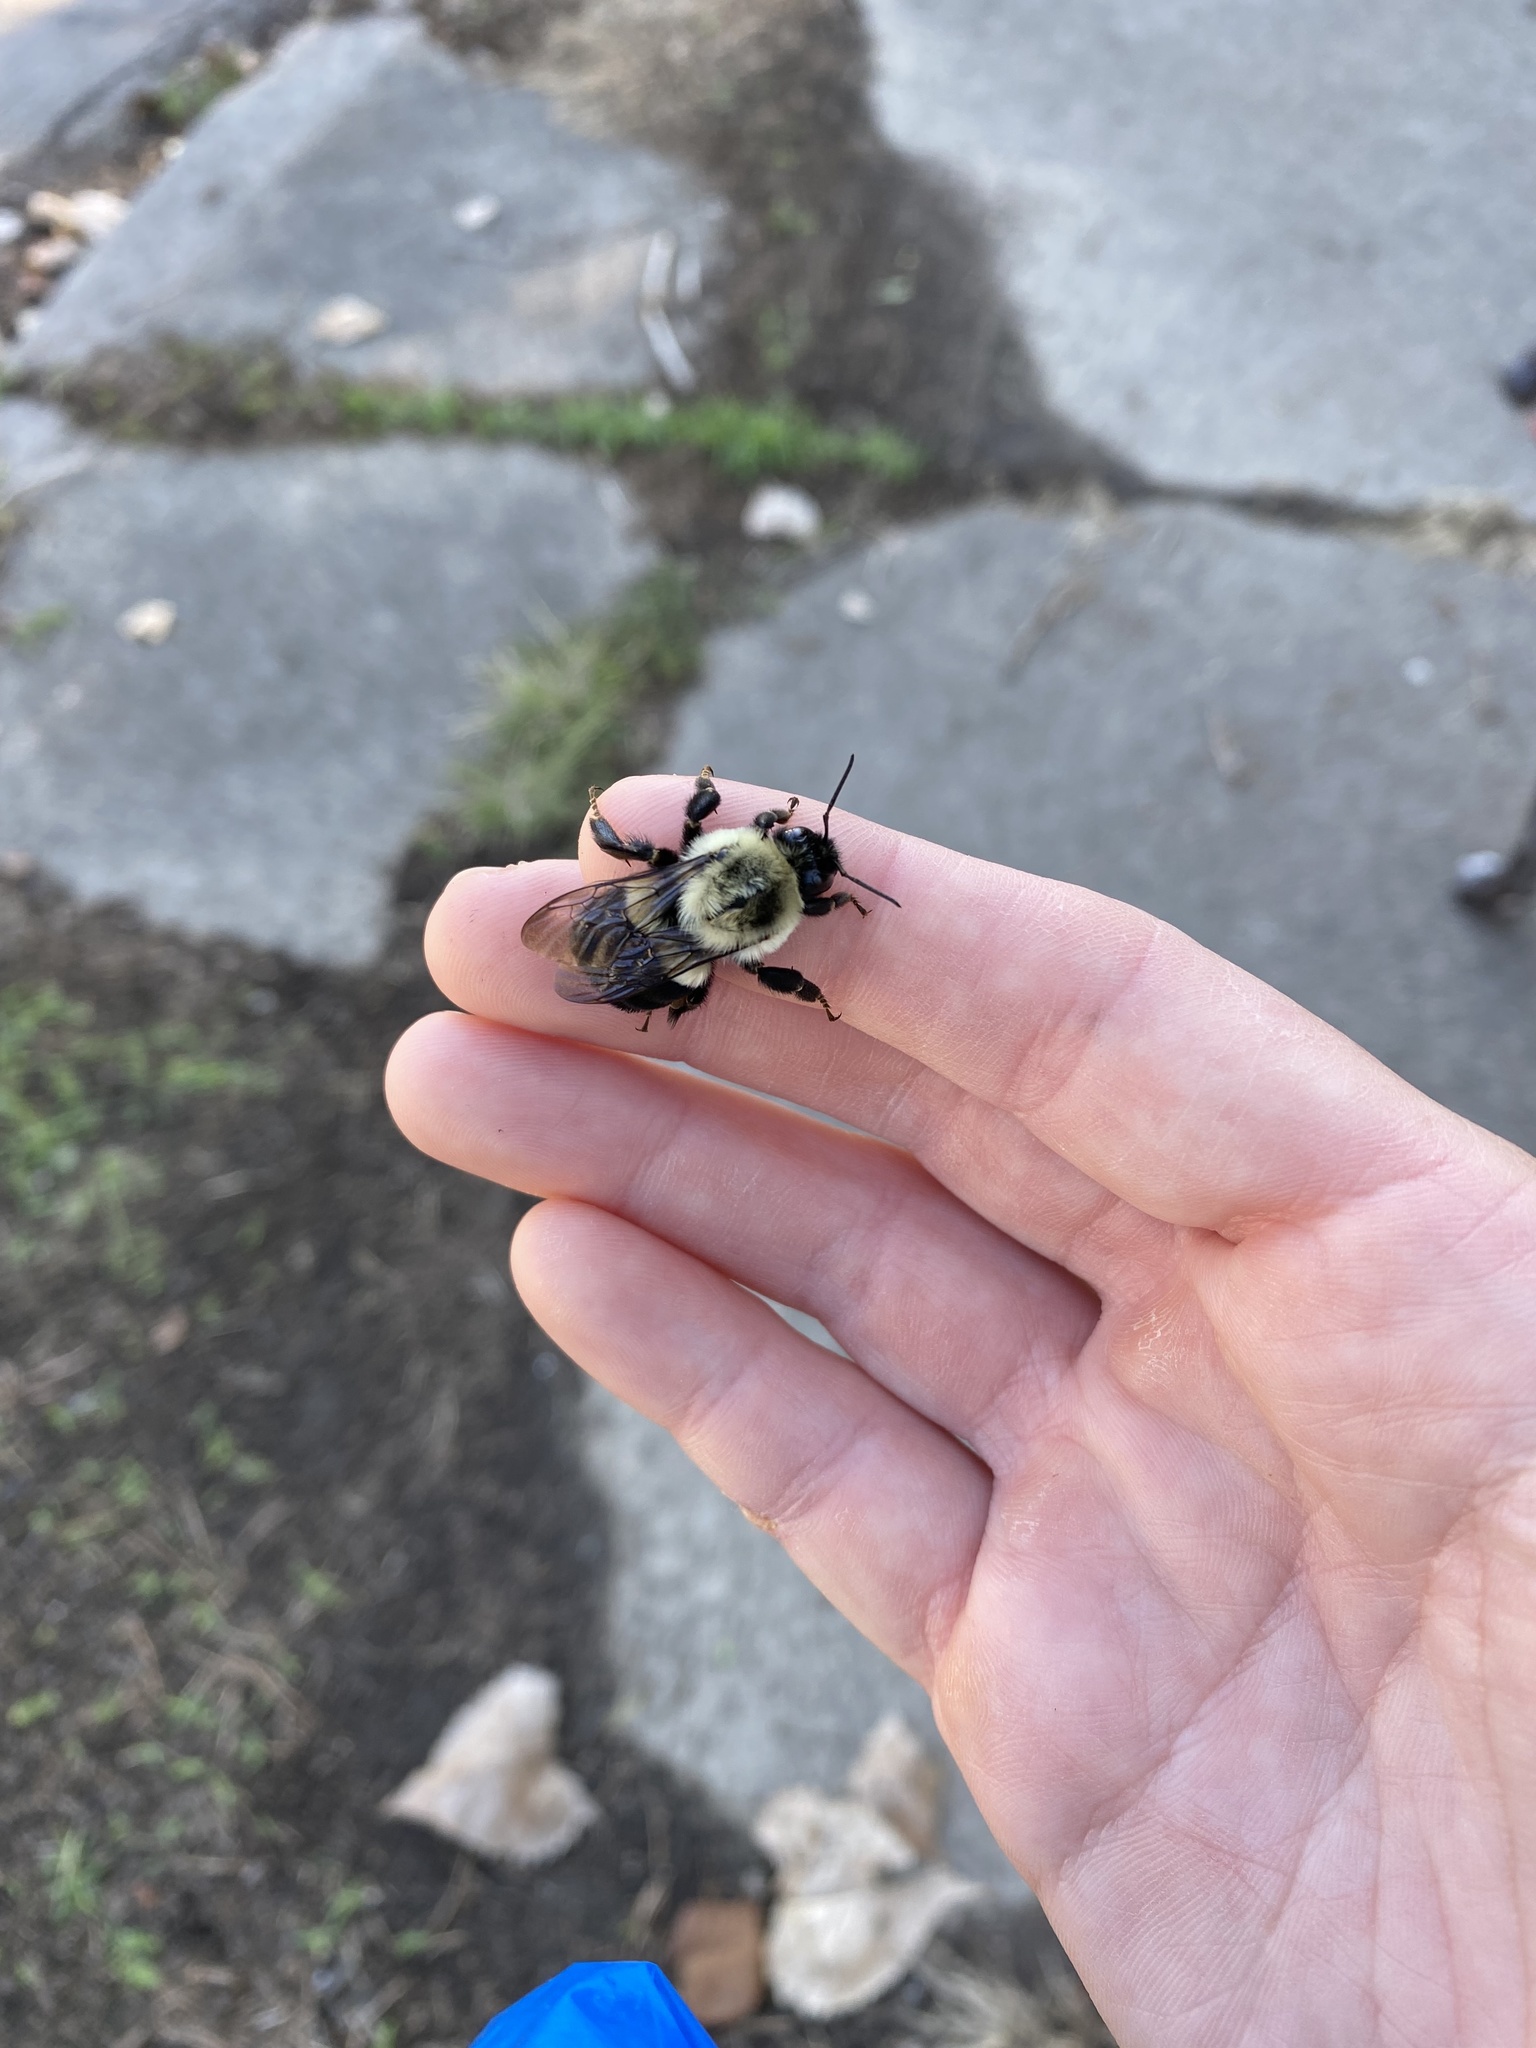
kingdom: Animalia
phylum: Arthropoda
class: Insecta
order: Hymenoptera
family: Apidae
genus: Bombus
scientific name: Bombus impatiens
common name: Common eastern bumble bee
